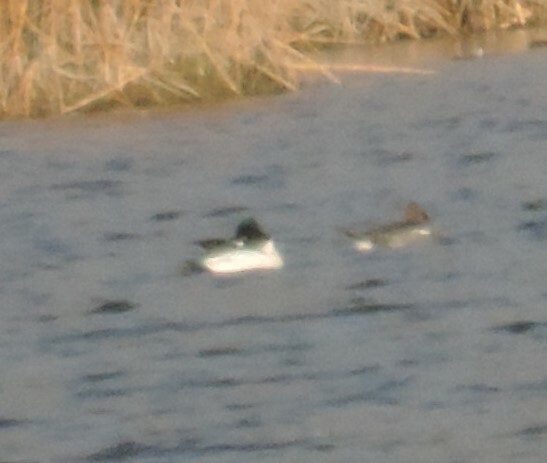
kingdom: Animalia
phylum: Chordata
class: Aves
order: Anseriformes
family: Anatidae
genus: Bucephala
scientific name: Bucephala clangula
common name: Common goldeneye
